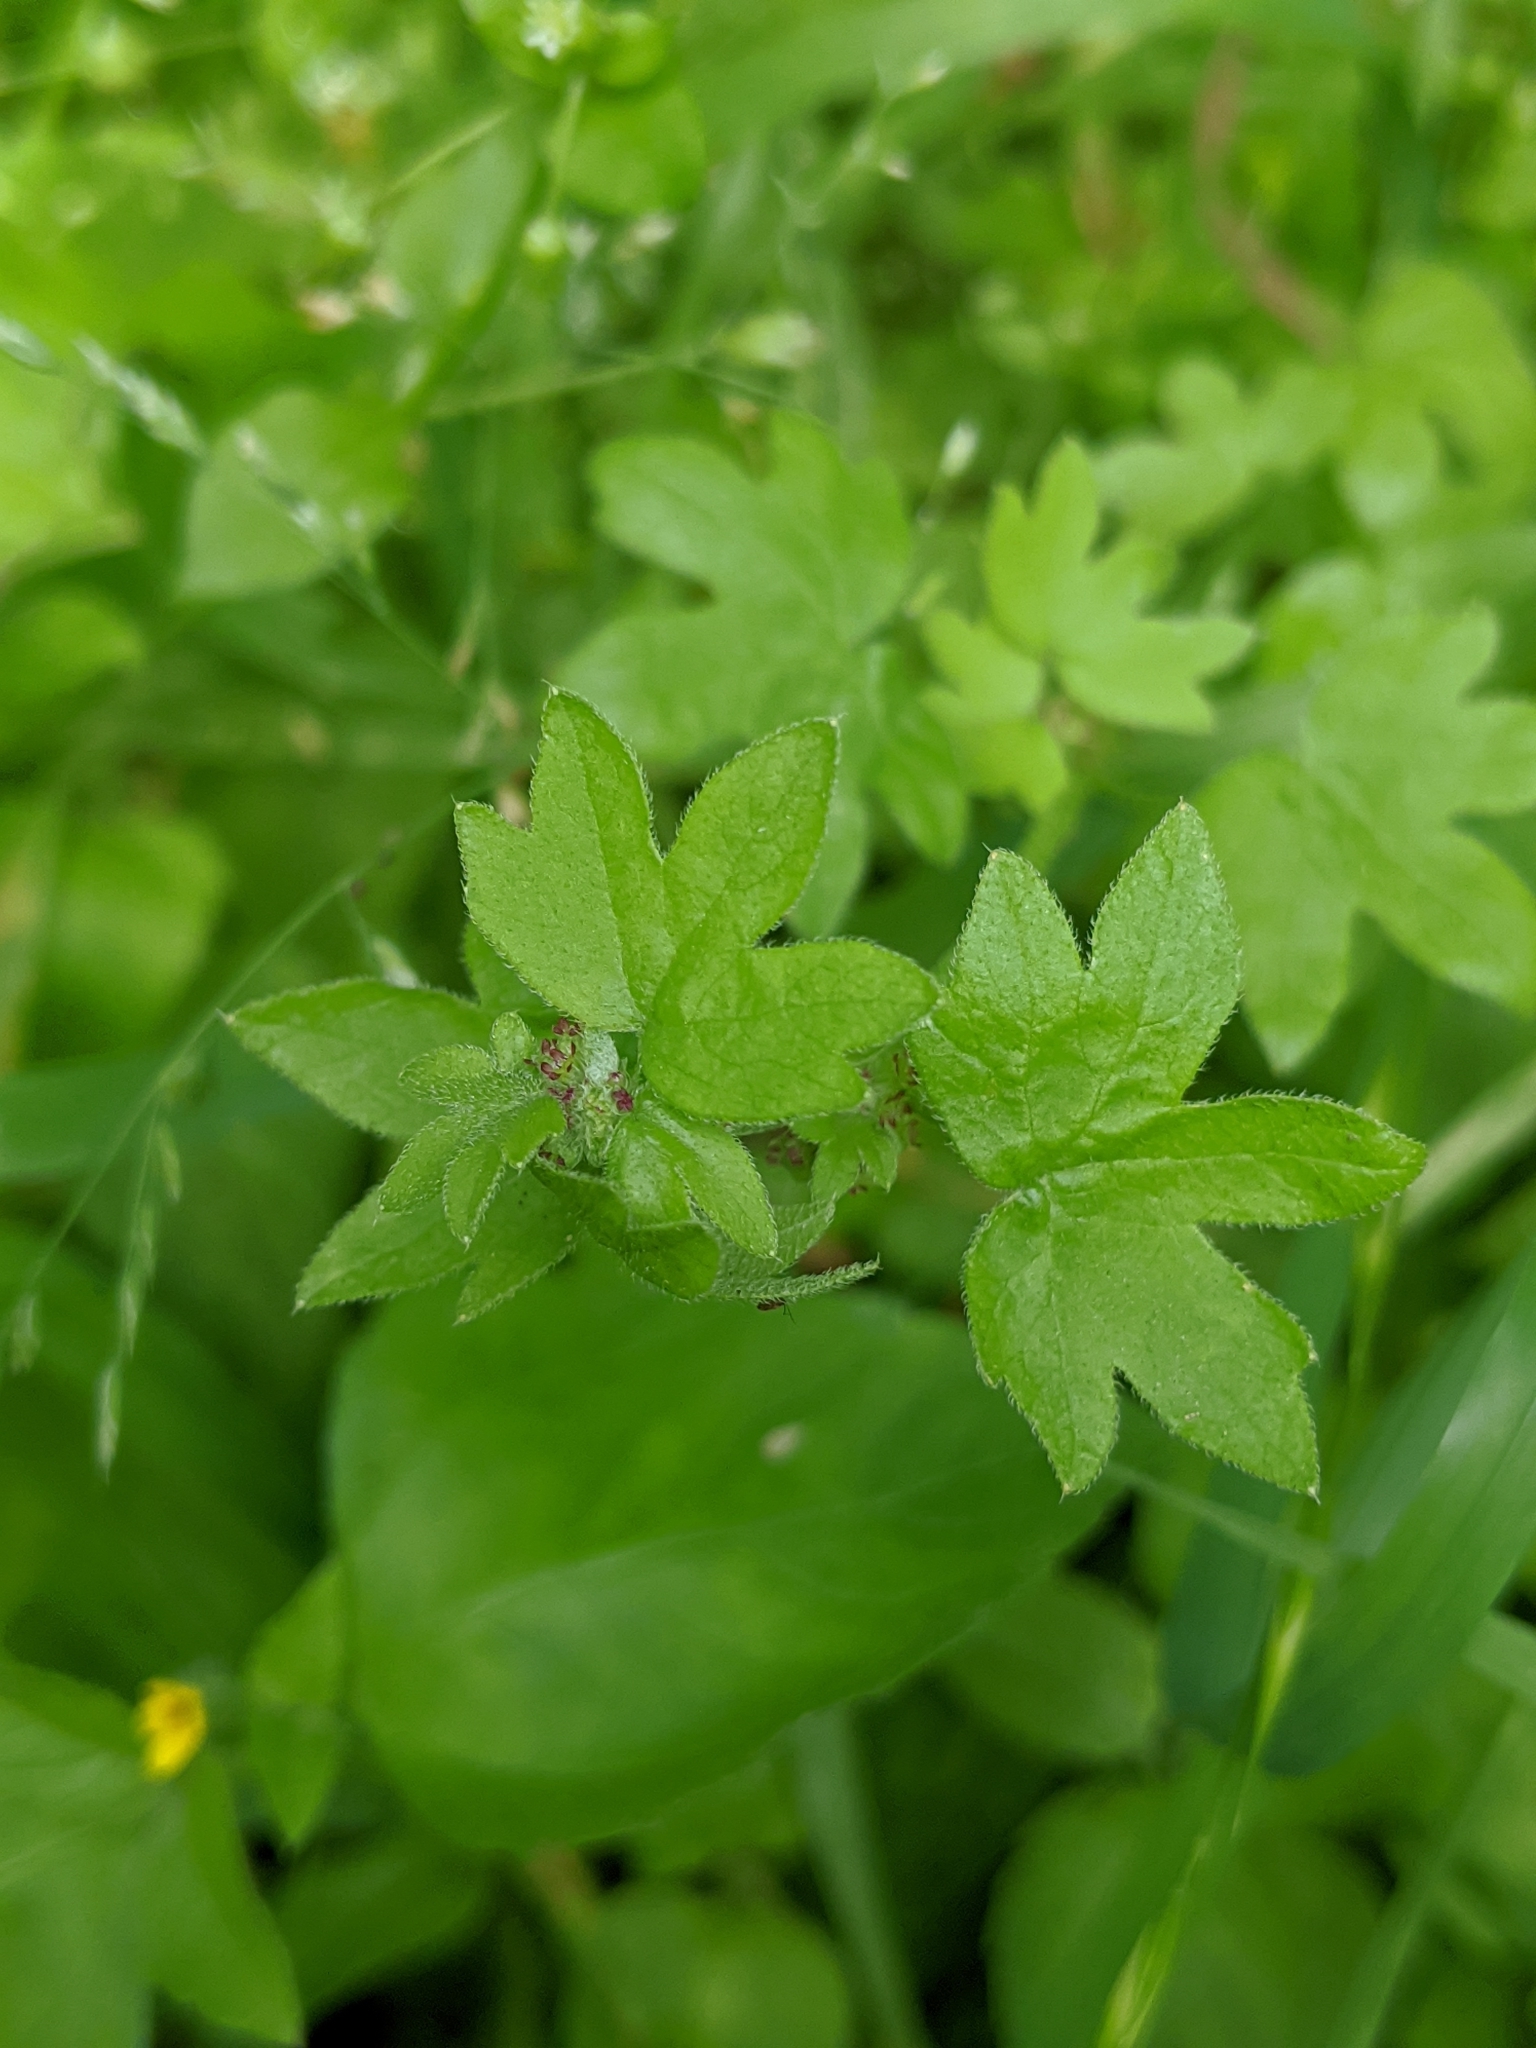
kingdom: Plantae
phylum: Tracheophyta
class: Magnoliopsida
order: Apiales
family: Apiaceae
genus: Bowlesia
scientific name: Bowlesia incana
